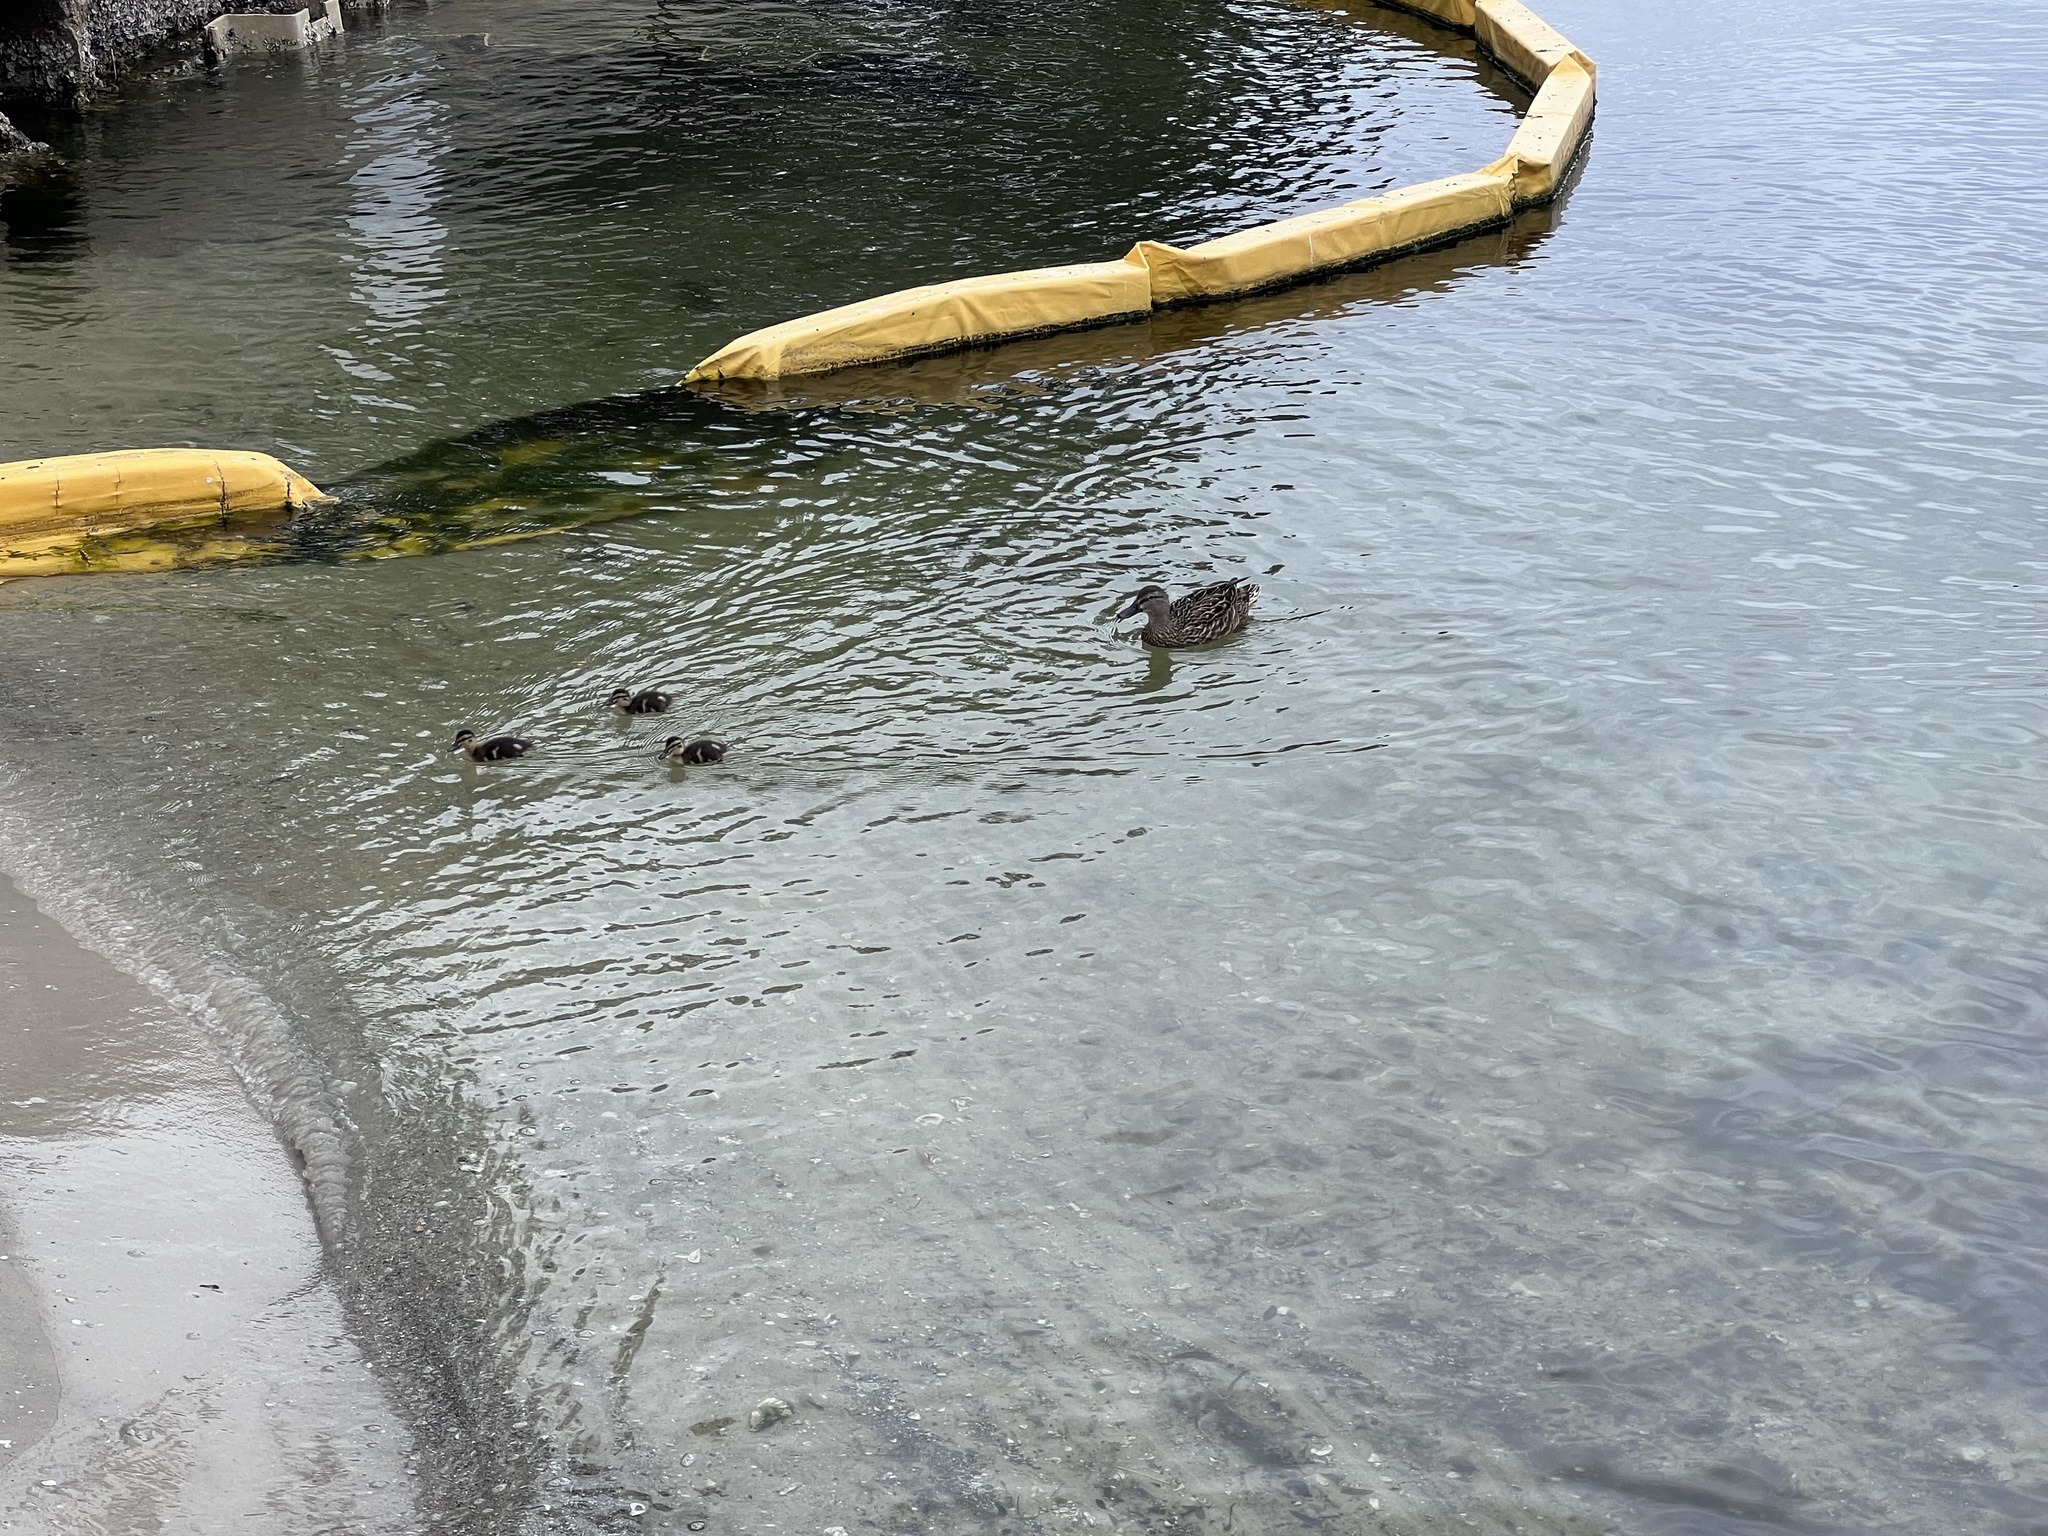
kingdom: Animalia
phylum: Chordata
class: Aves
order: Anseriformes
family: Anatidae
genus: Anas
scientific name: Anas platyrhynchos
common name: Mallard
